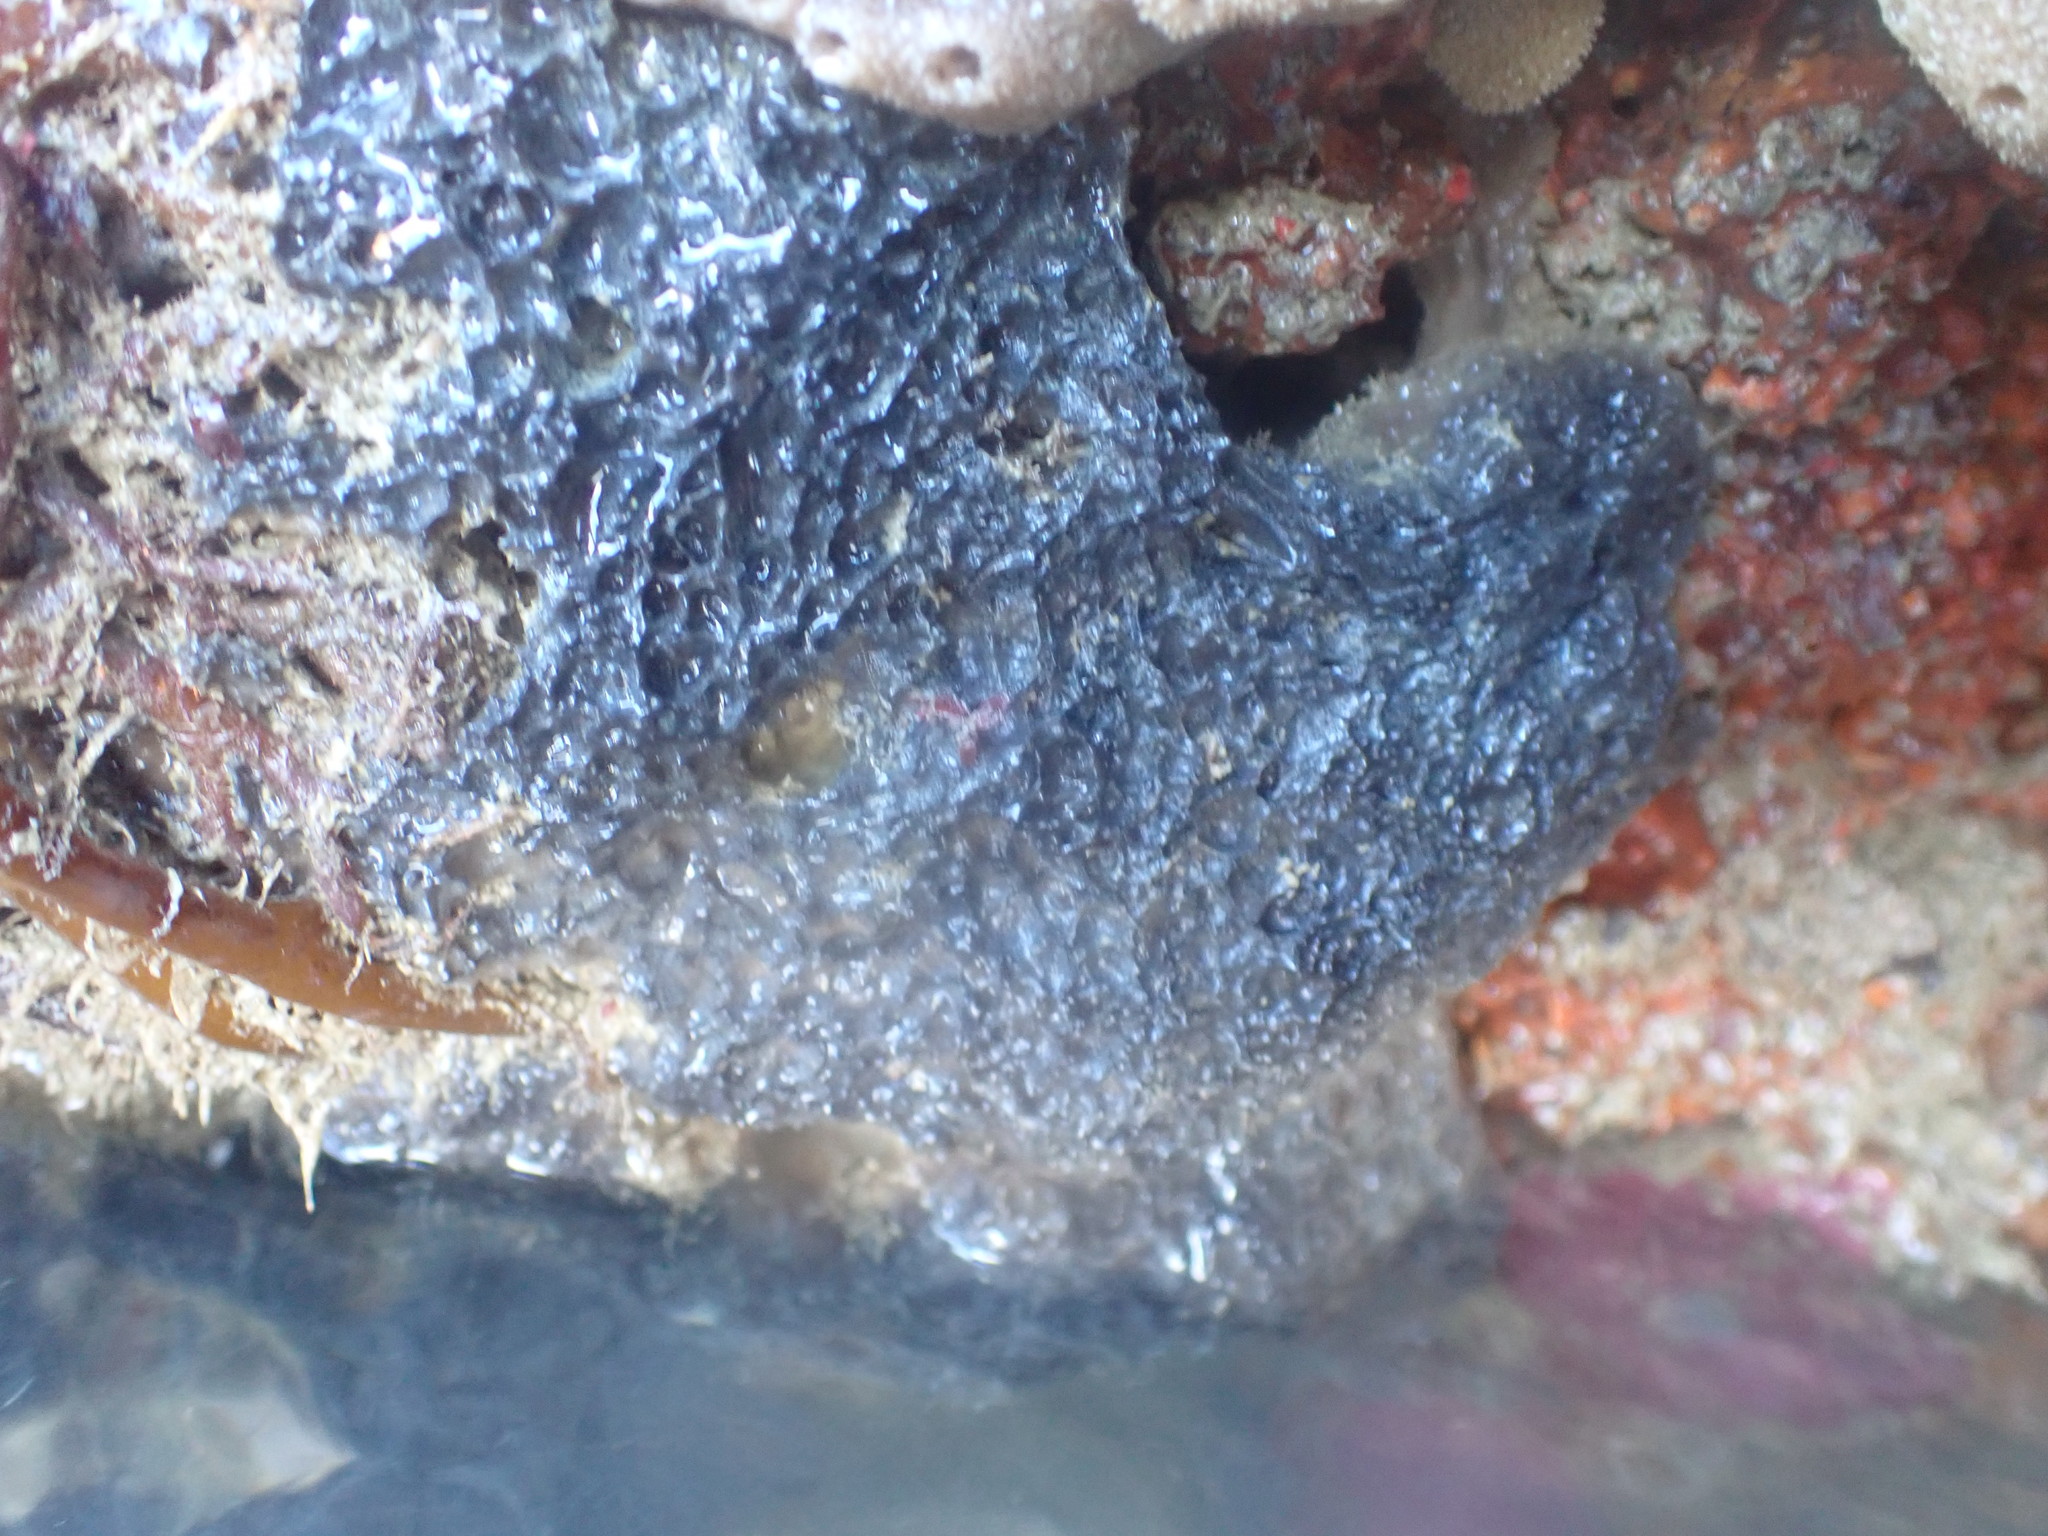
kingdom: Animalia
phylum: Porifera
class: Demospongiae
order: Dictyoceratida
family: Irciniidae
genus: Ircinia
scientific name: Ircinia novaezealandiae
